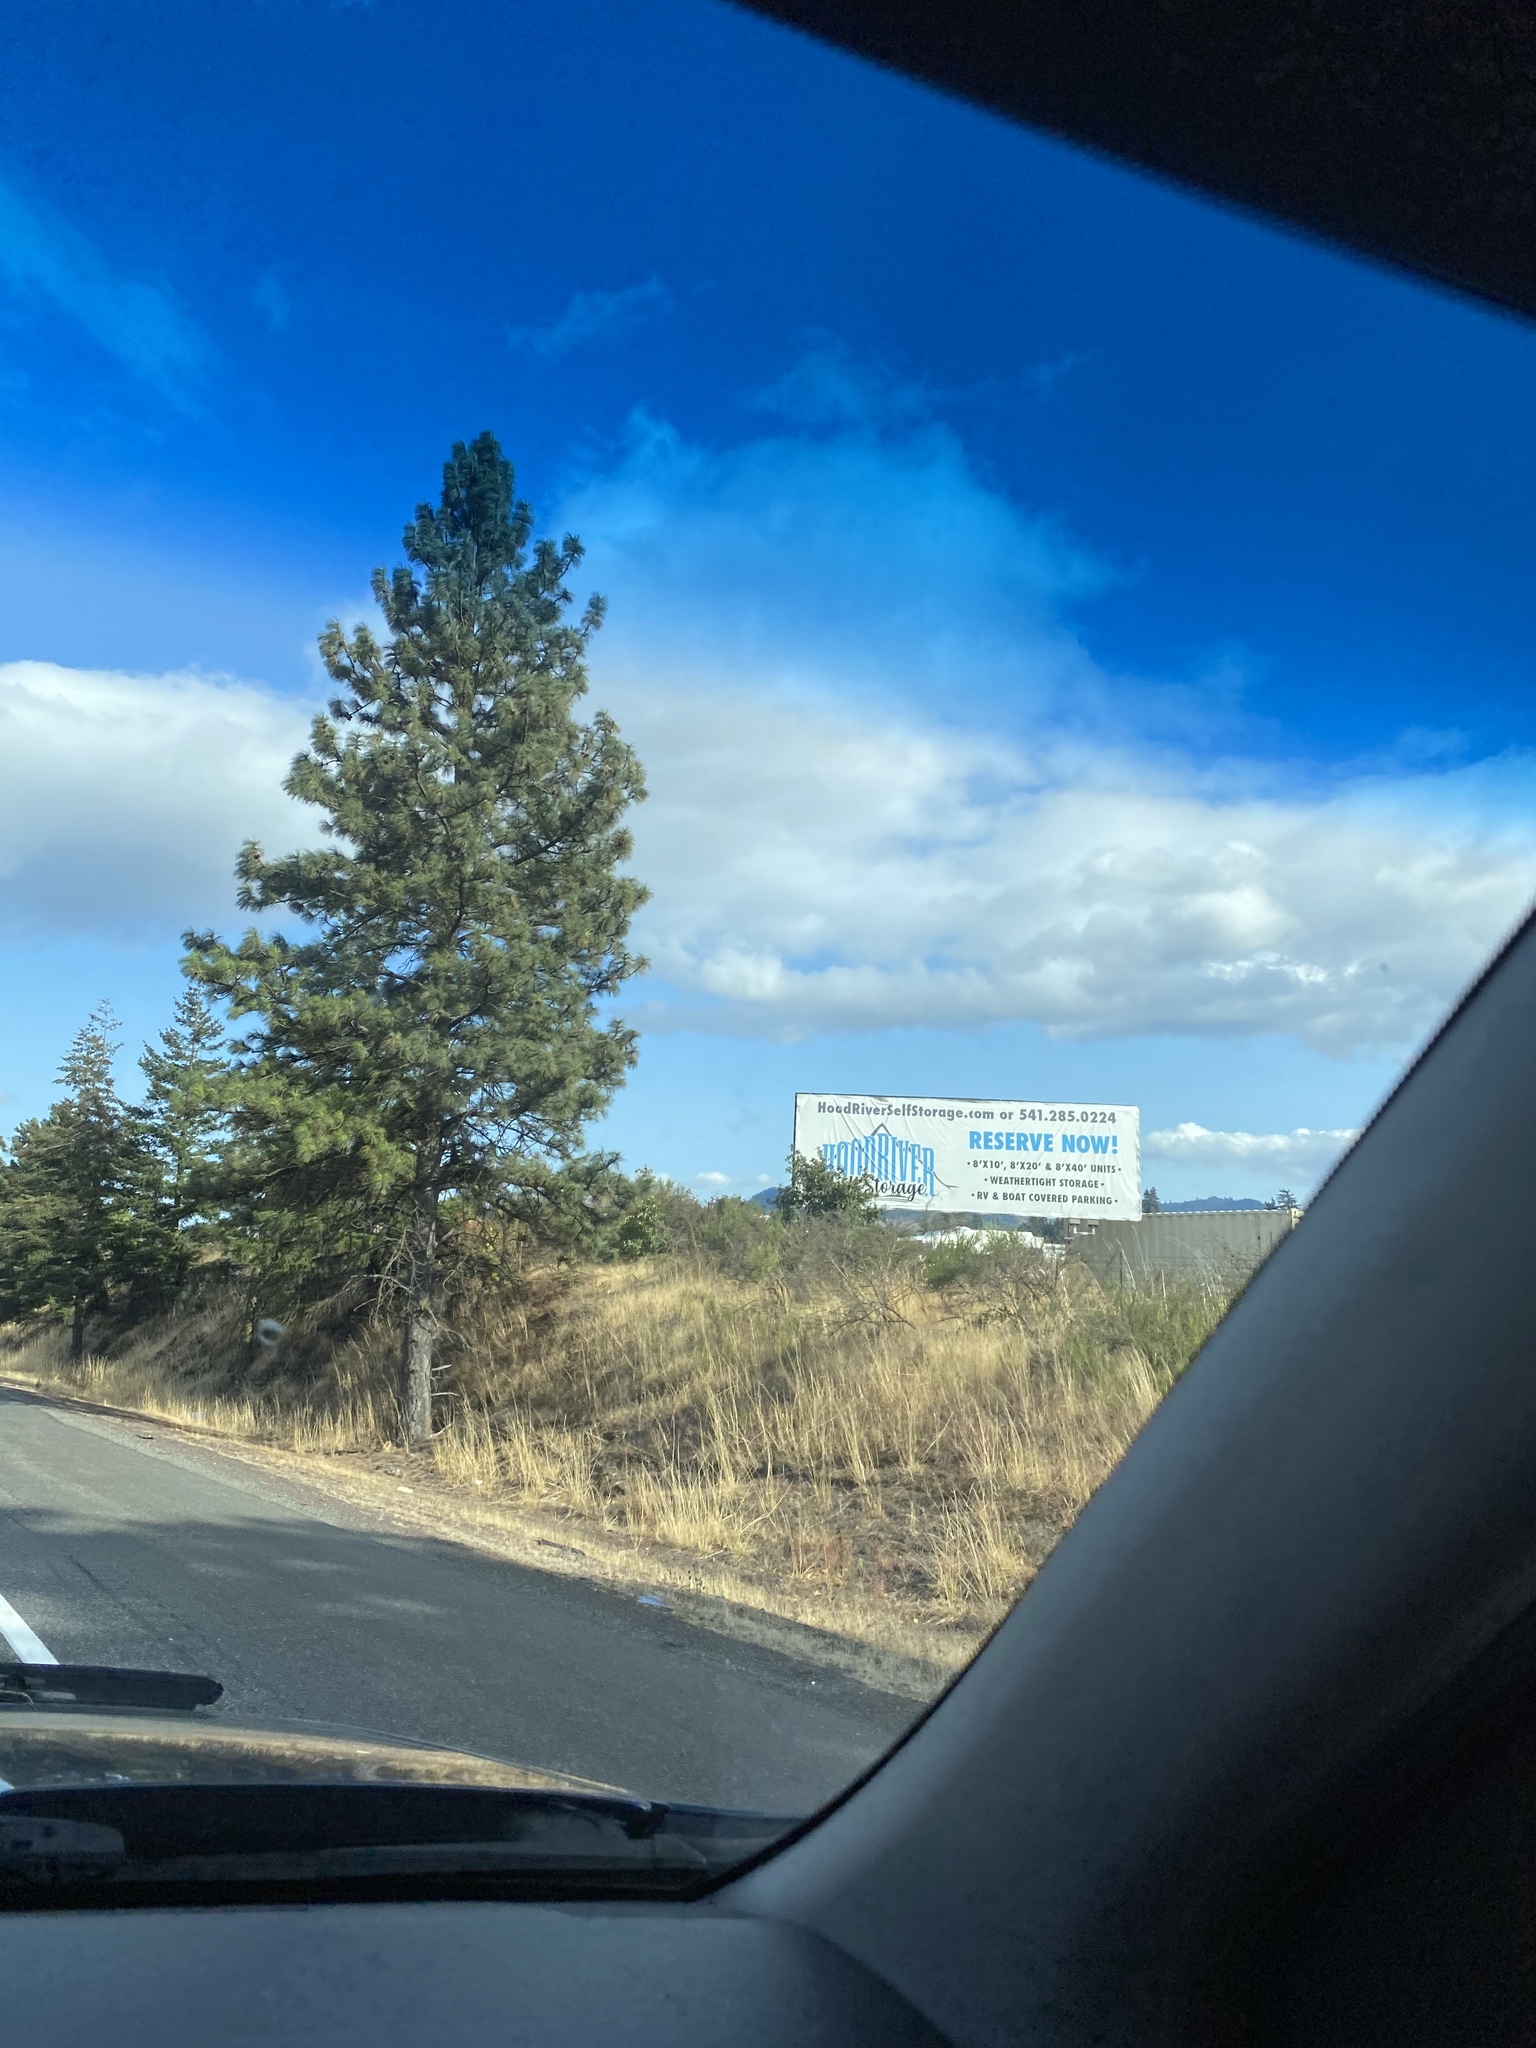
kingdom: Plantae
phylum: Tracheophyta
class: Pinopsida
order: Pinales
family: Pinaceae
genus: Pinus
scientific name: Pinus ponderosa
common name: Western yellow-pine
